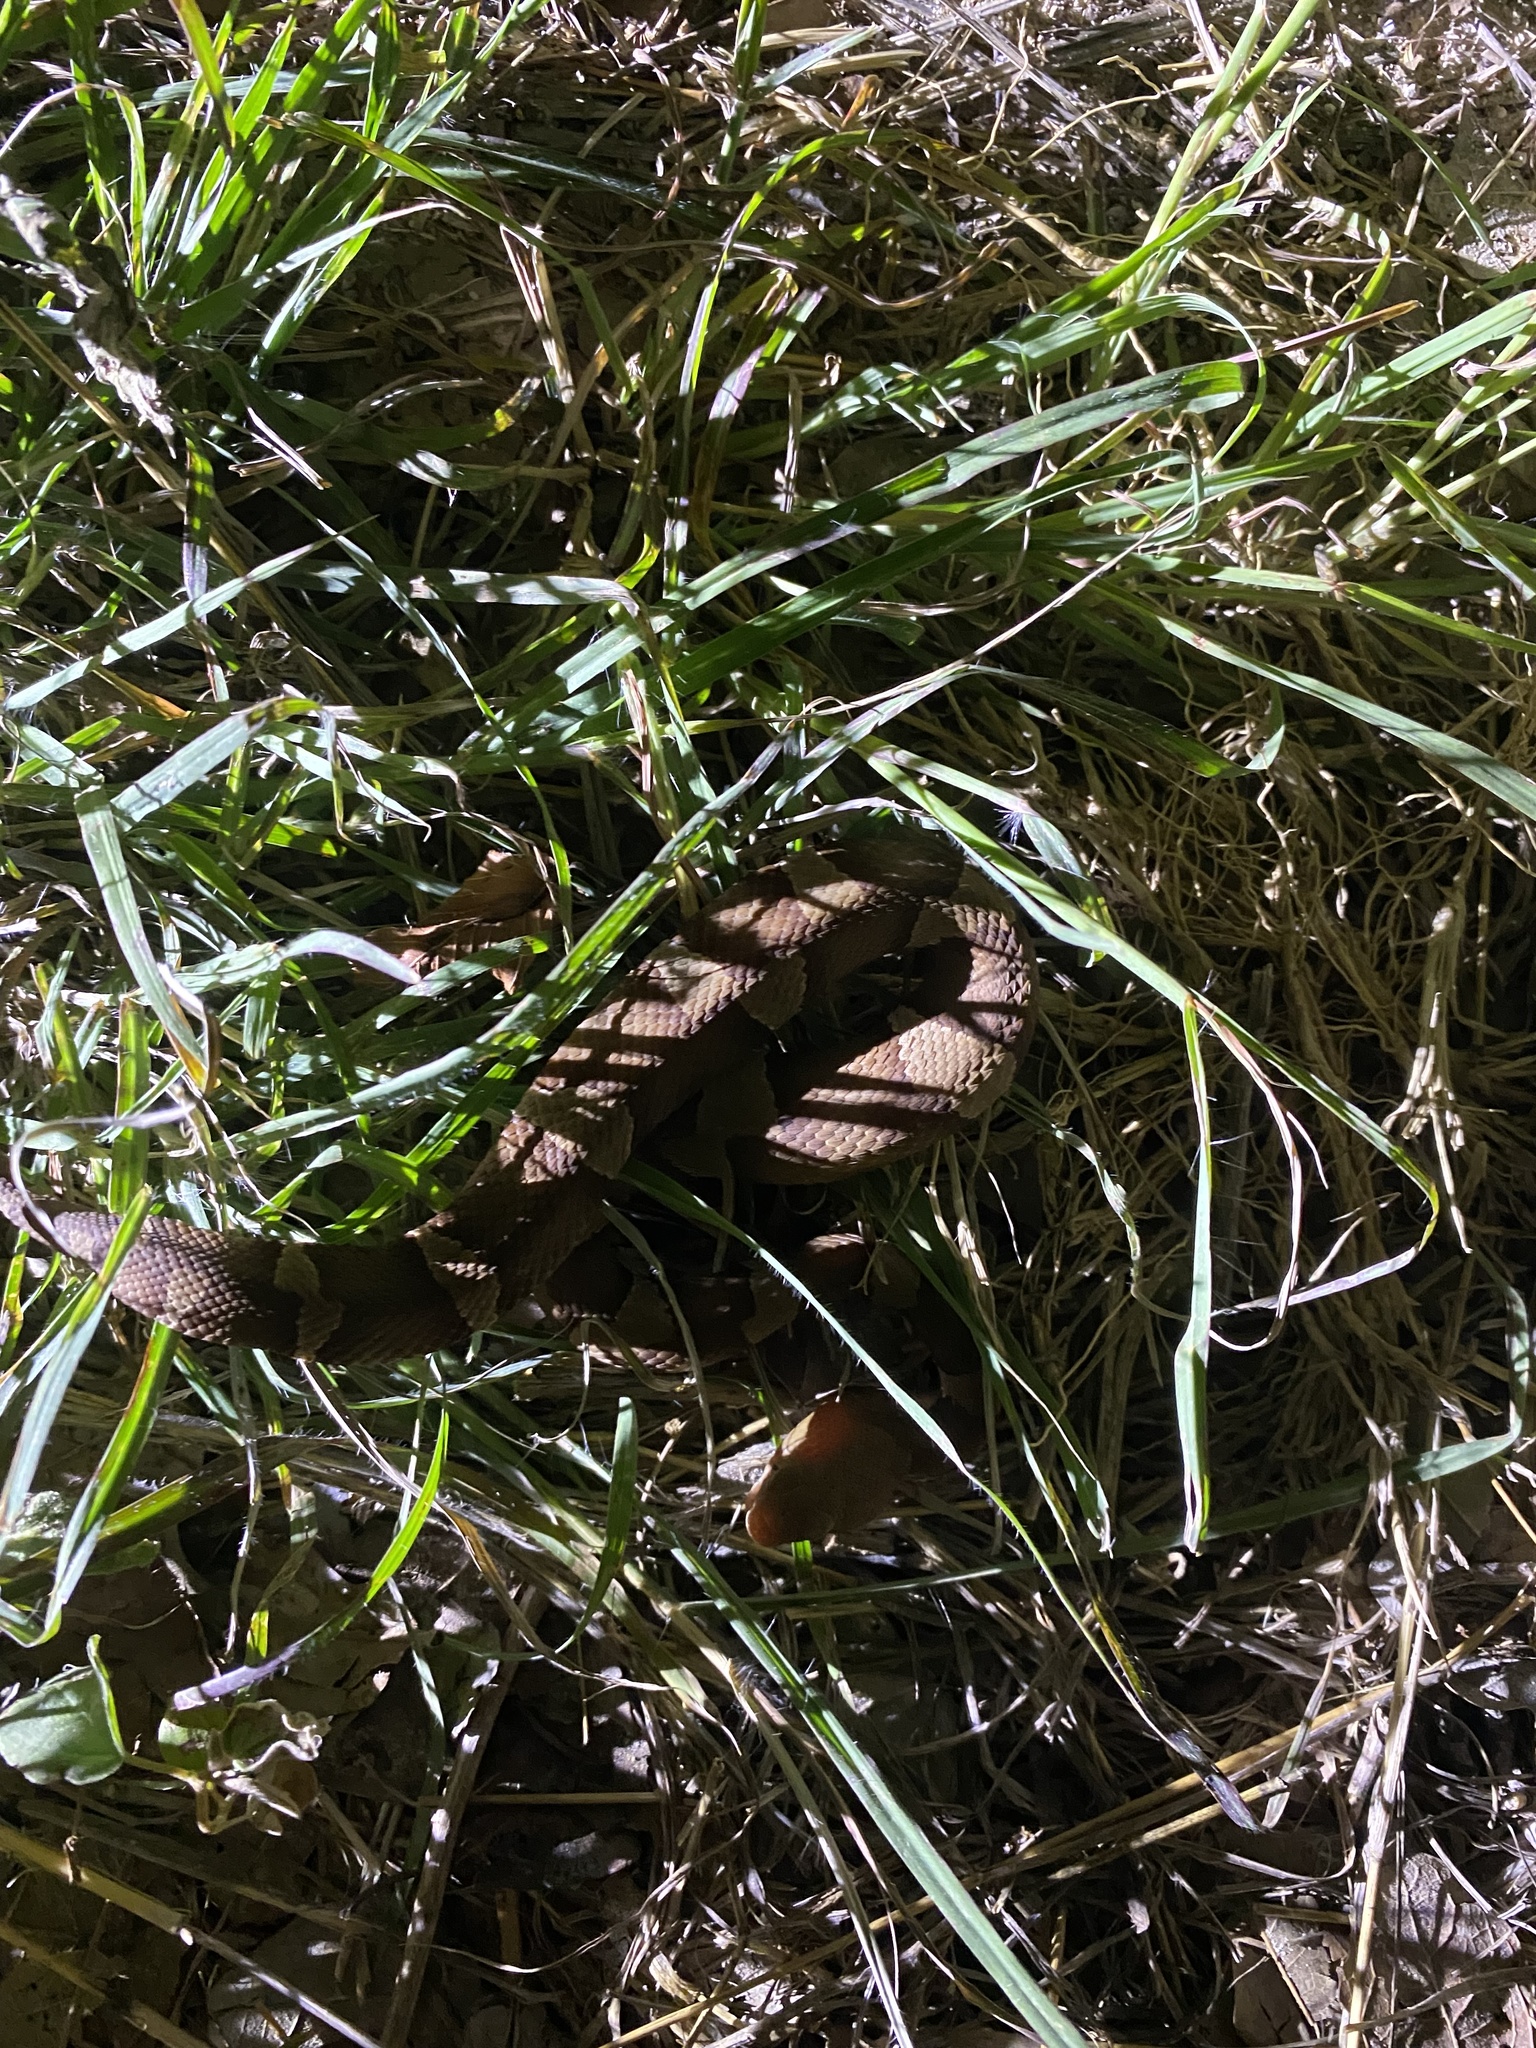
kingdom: Animalia
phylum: Chordata
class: Squamata
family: Viperidae
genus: Agkistrodon
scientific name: Agkistrodon laticinctus
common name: Broad-banded copperhead
